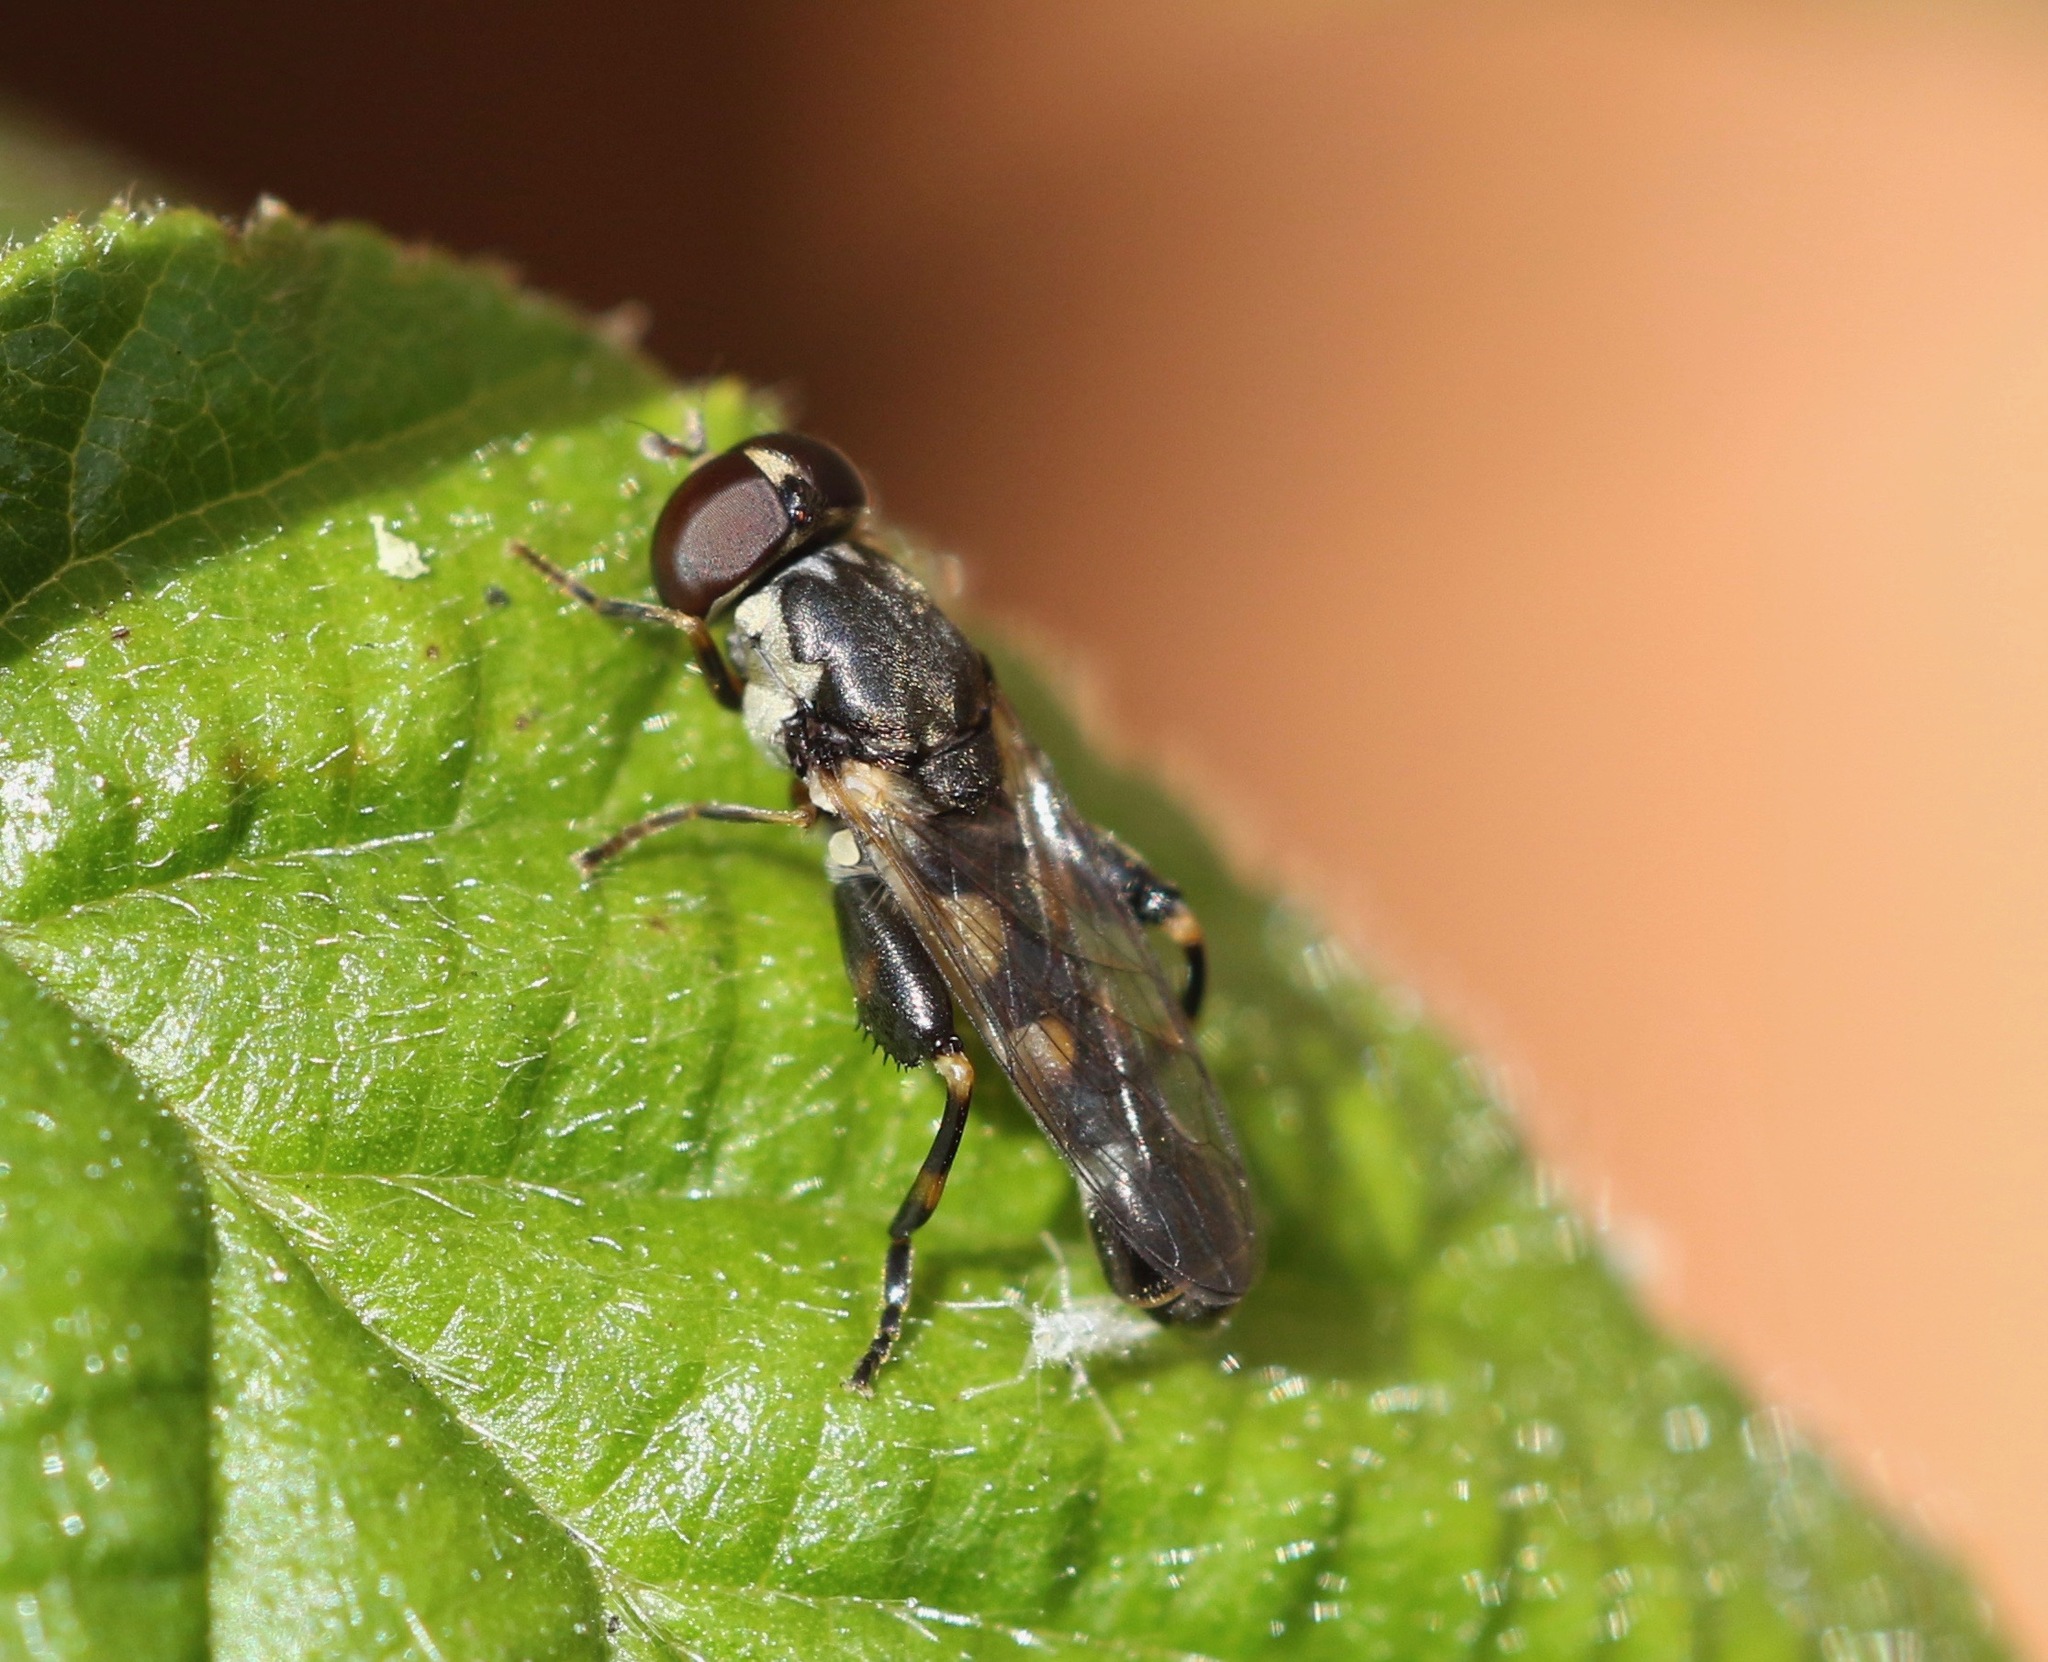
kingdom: Animalia
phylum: Arthropoda
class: Insecta
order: Diptera
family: Syrphidae
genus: Syritta
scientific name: Syritta pipiens
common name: Hover fly
